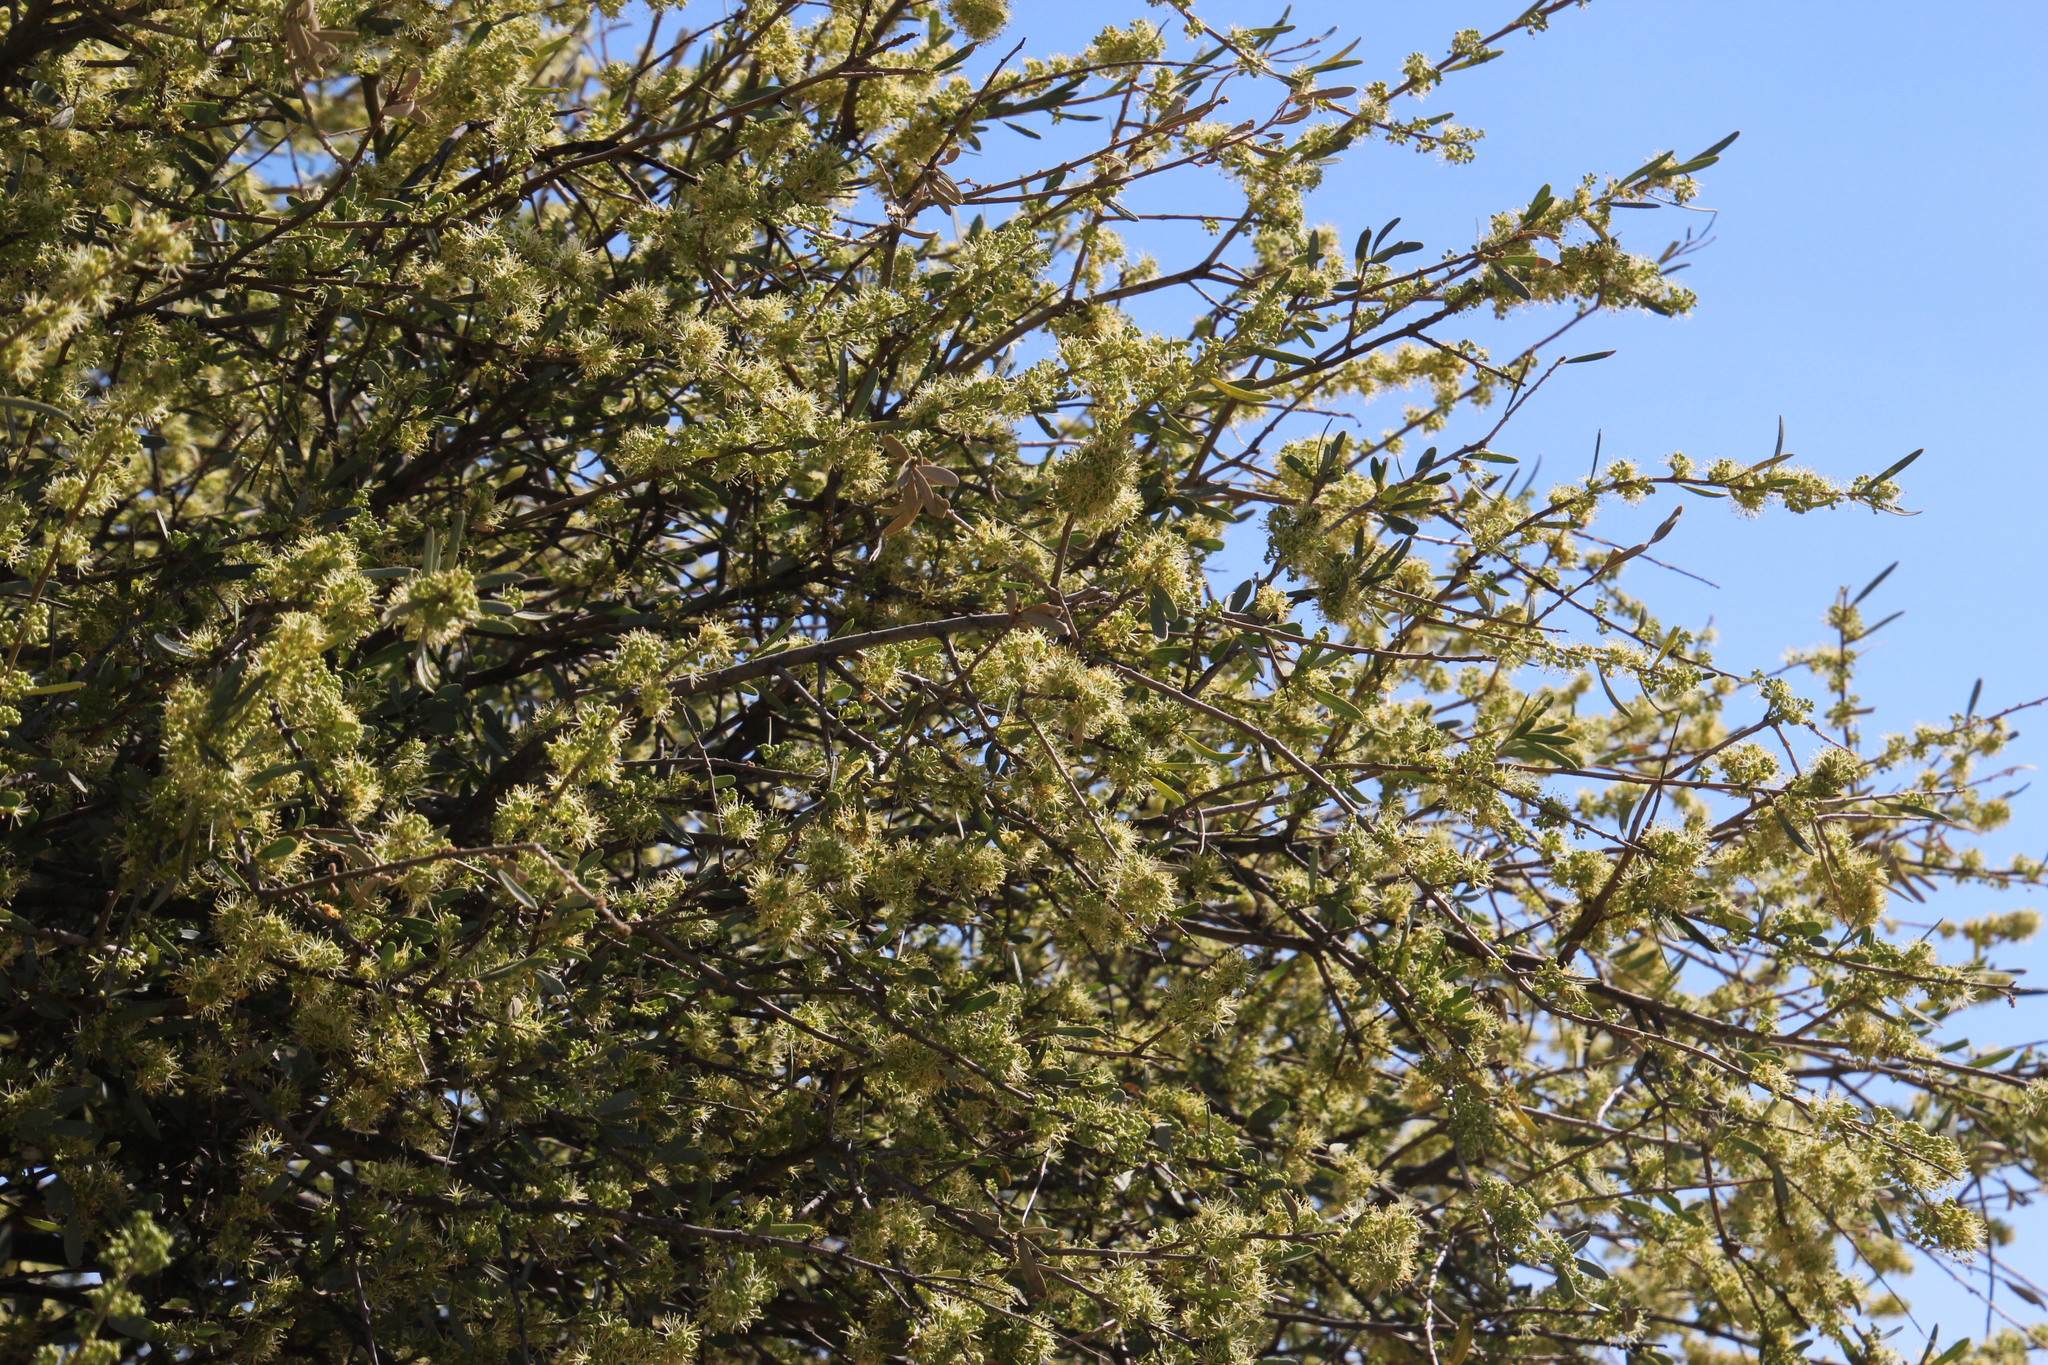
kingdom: Plantae
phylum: Tracheophyta
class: Magnoliopsida
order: Brassicales
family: Capparaceae
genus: Boscia
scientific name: Boscia albitrunca
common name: Caper bush
